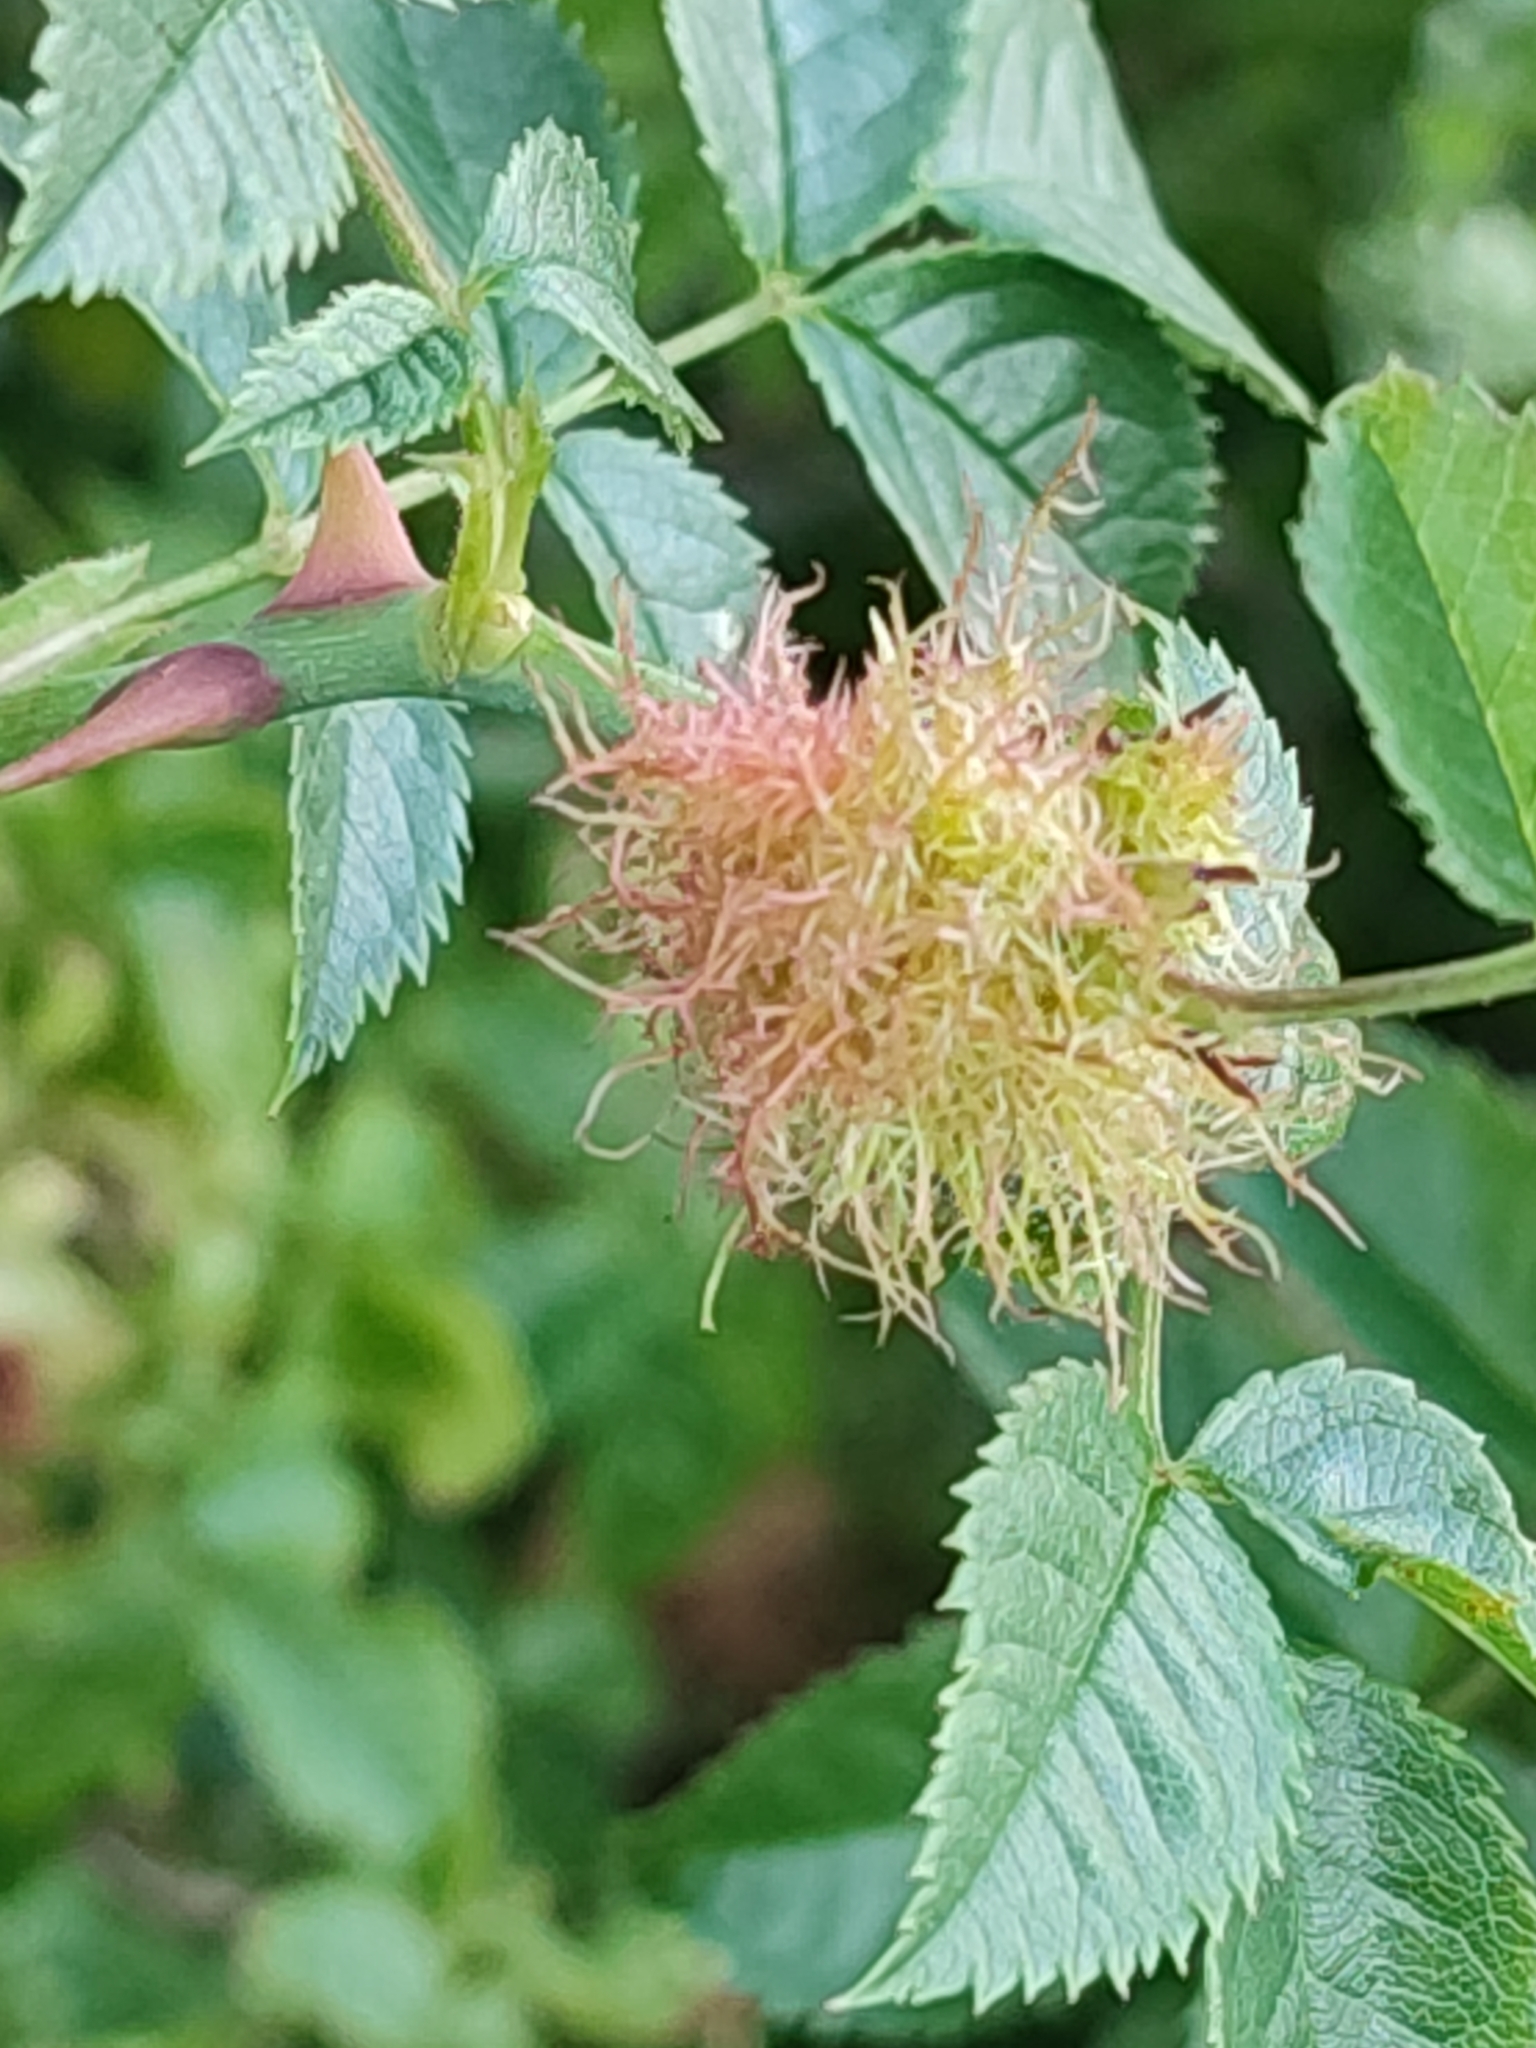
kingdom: Animalia
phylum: Arthropoda
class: Insecta
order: Hymenoptera
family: Cynipidae
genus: Diplolepis
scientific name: Diplolepis rosae
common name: Bedeguar gall
